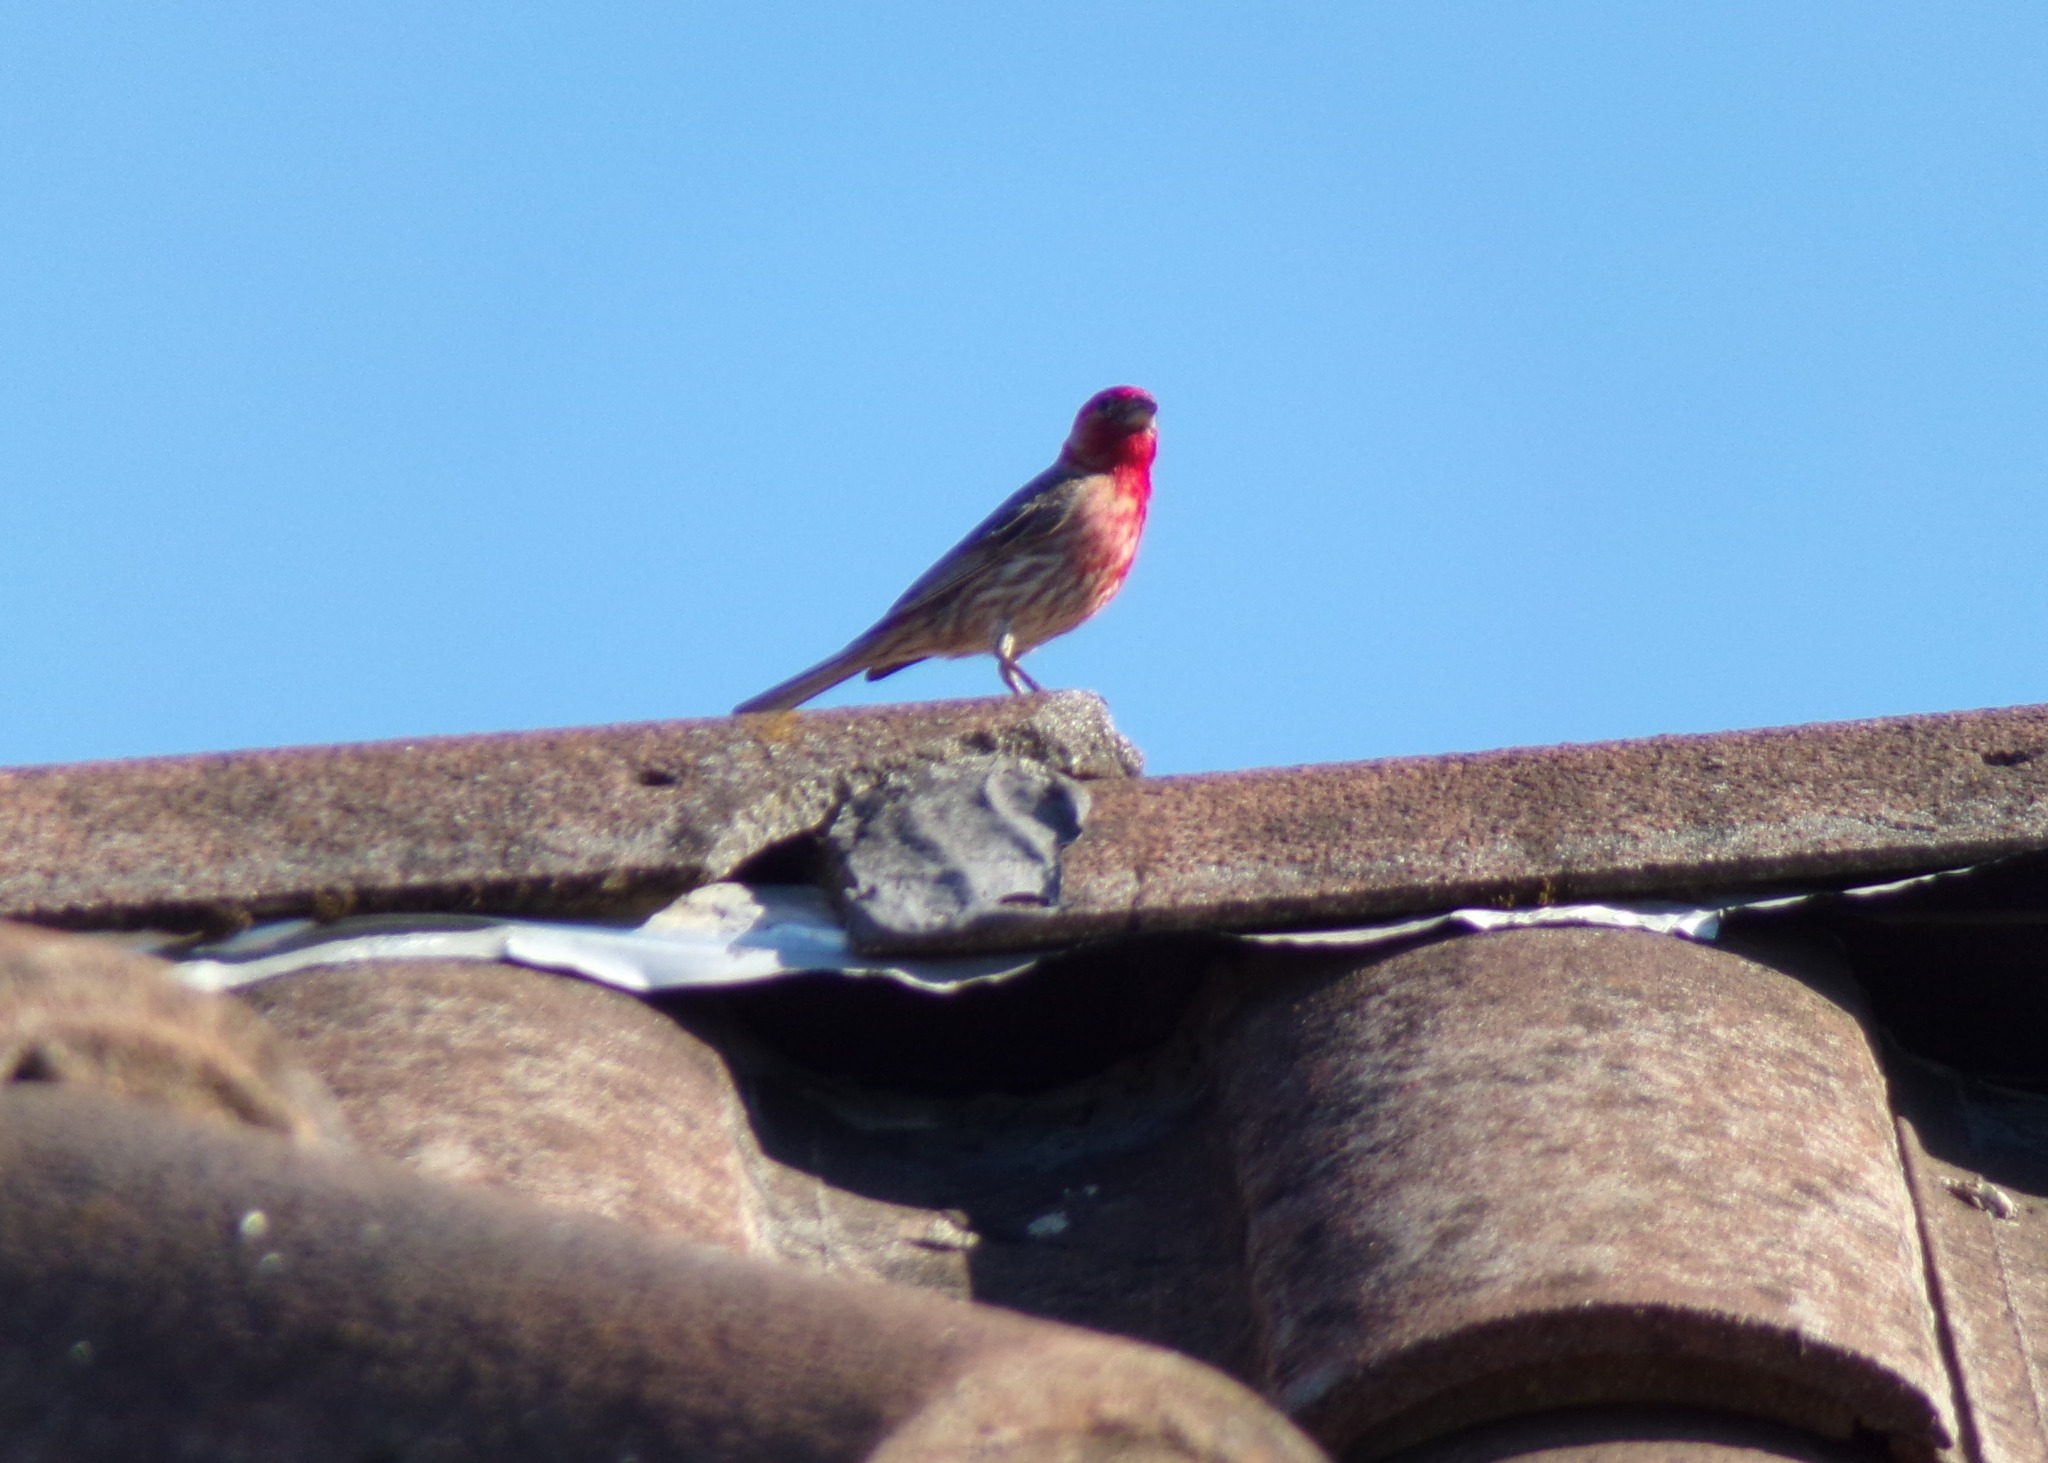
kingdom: Animalia
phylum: Chordata
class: Aves
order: Passeriformes
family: Fringillidae
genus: Haemorhous
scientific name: Haemorhous mexicanus
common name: House finch
